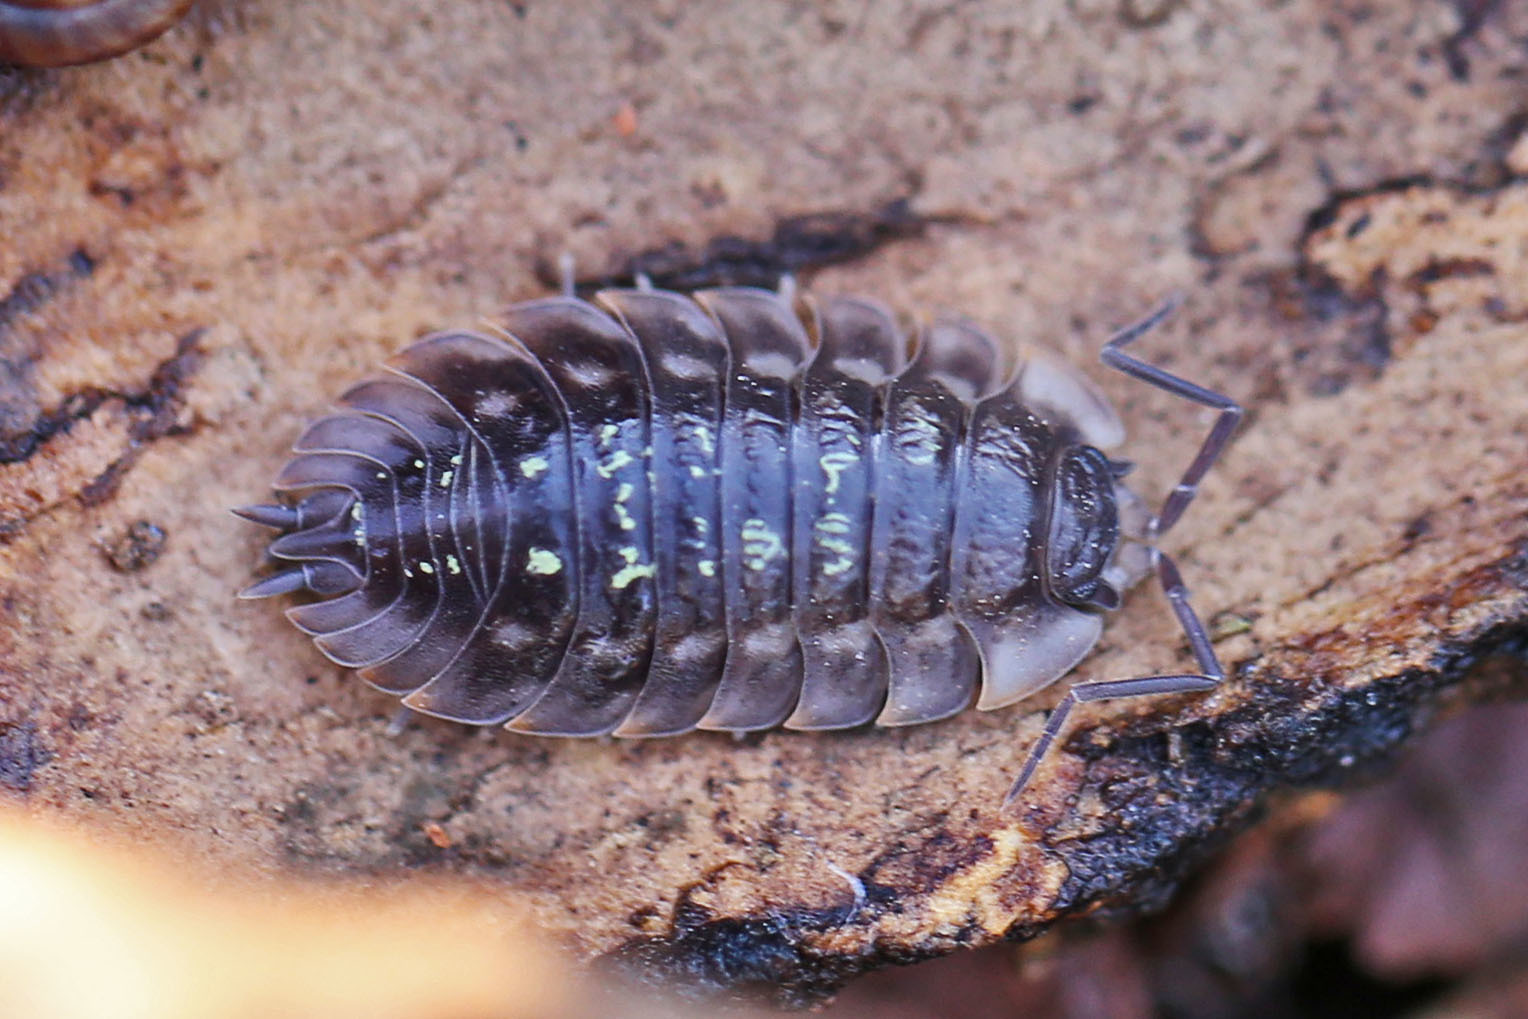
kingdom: Animalia
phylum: Arthropoda
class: Malacostraca
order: Isopoda
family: Oniscidae
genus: Oniscus
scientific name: Oniscus asellus
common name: Common shiny woodlouse
